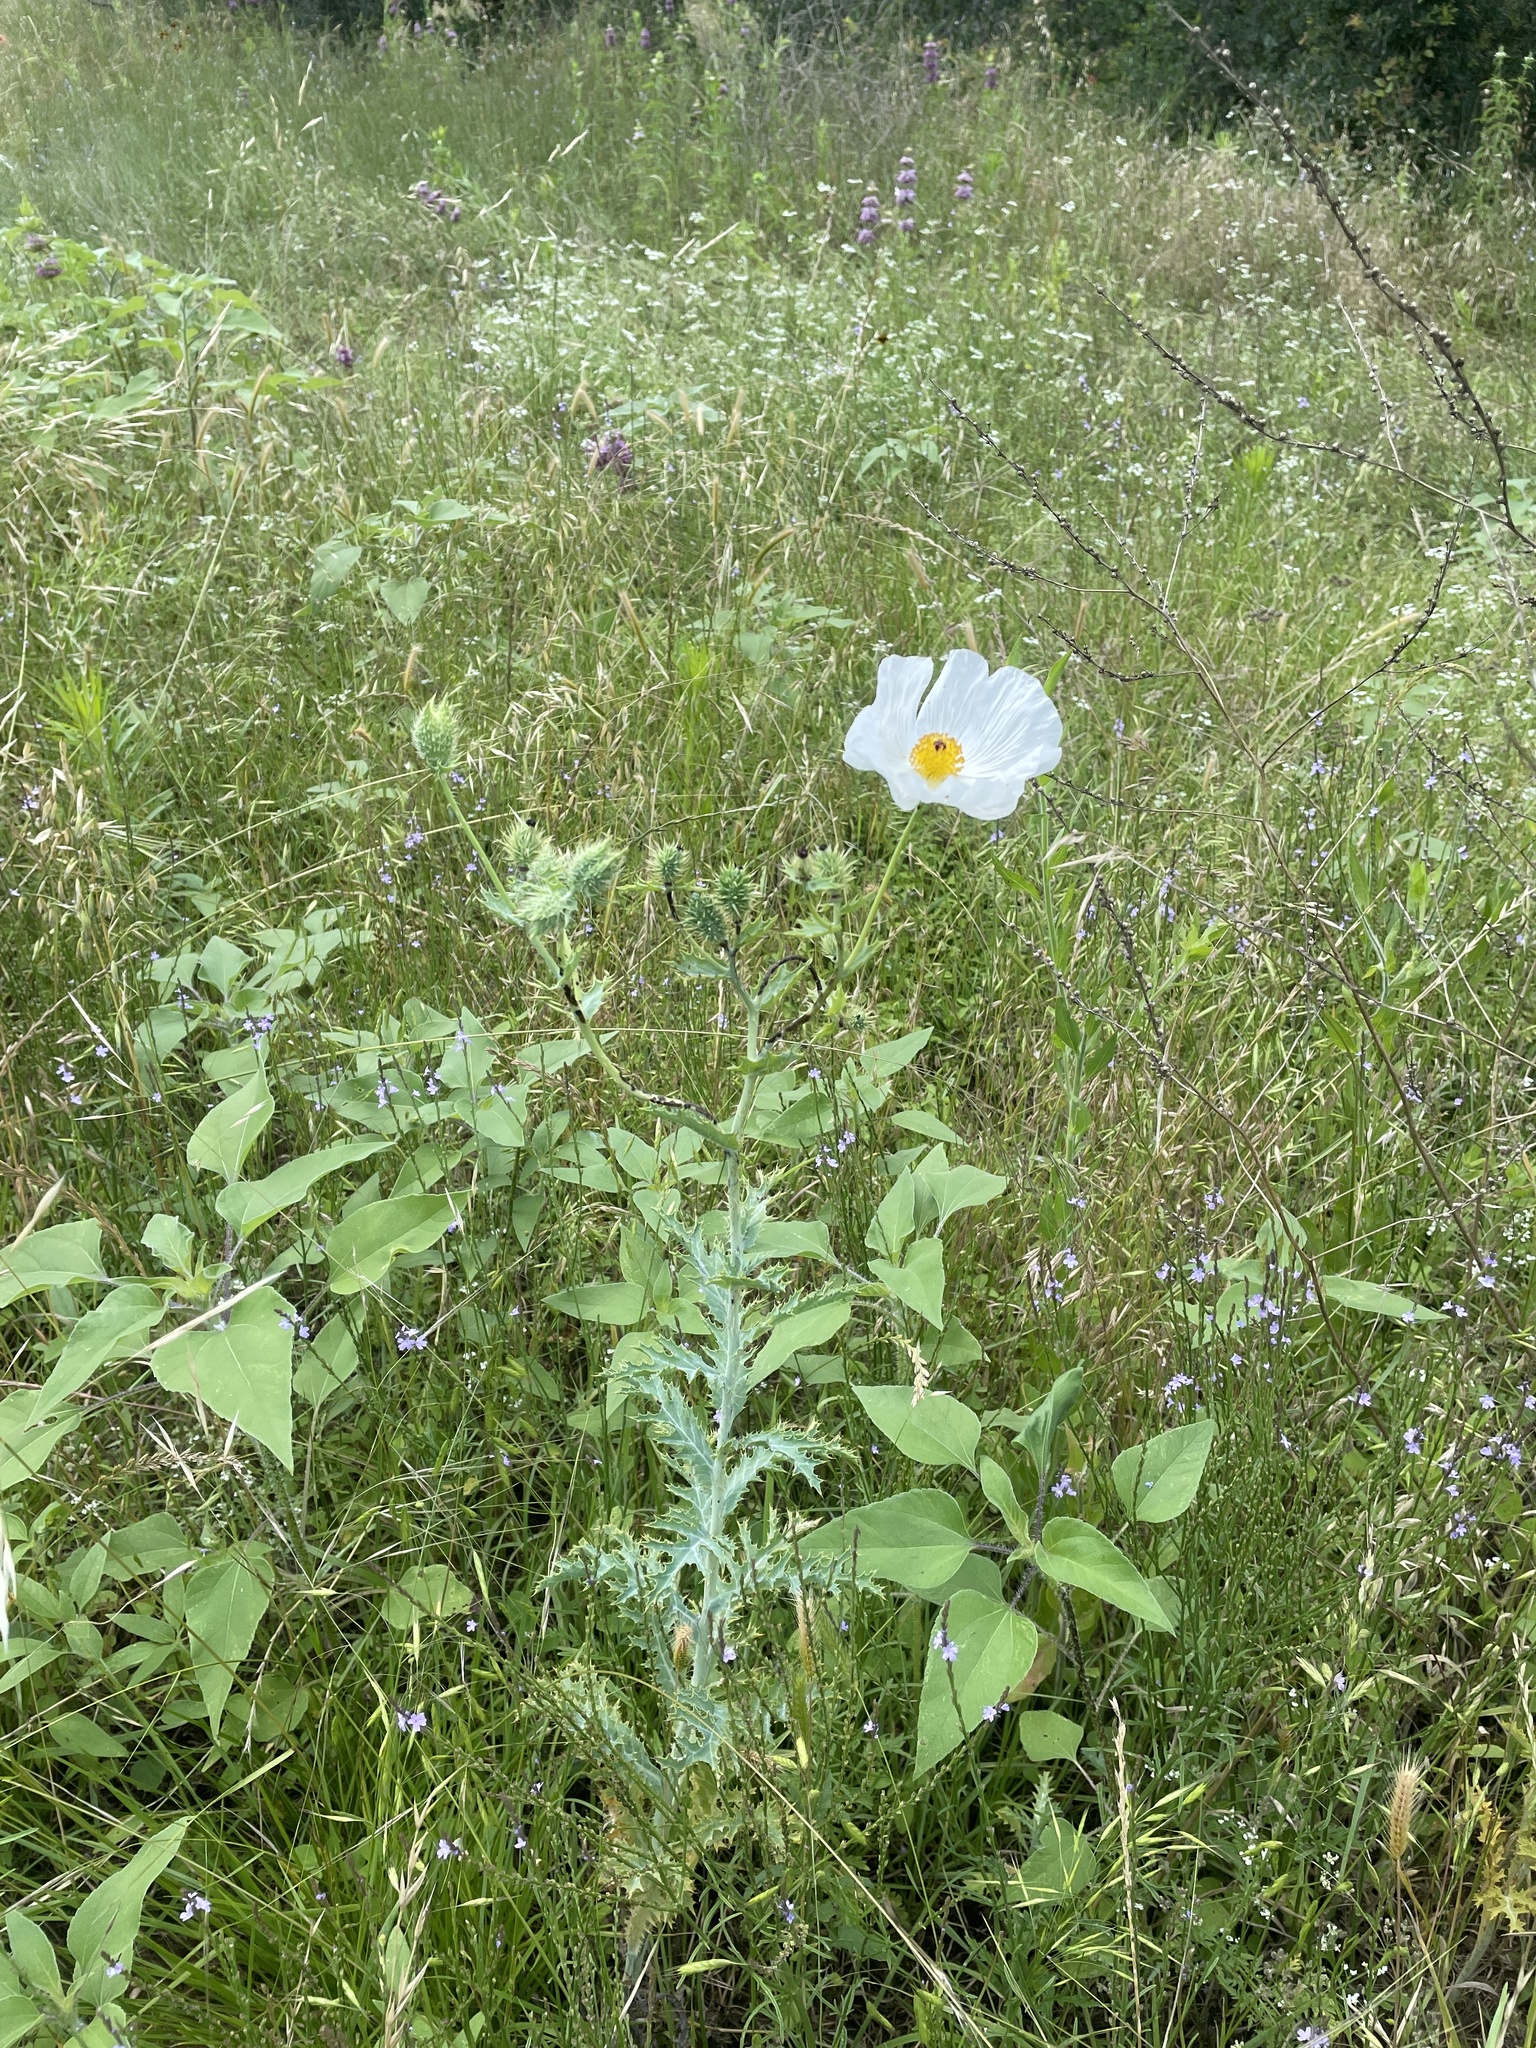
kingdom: Plantae
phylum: Tracheophyta
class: Magnoliopsida
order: Ranunculales
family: Papaveraceae
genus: Argemone
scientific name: Argemone albiflora
